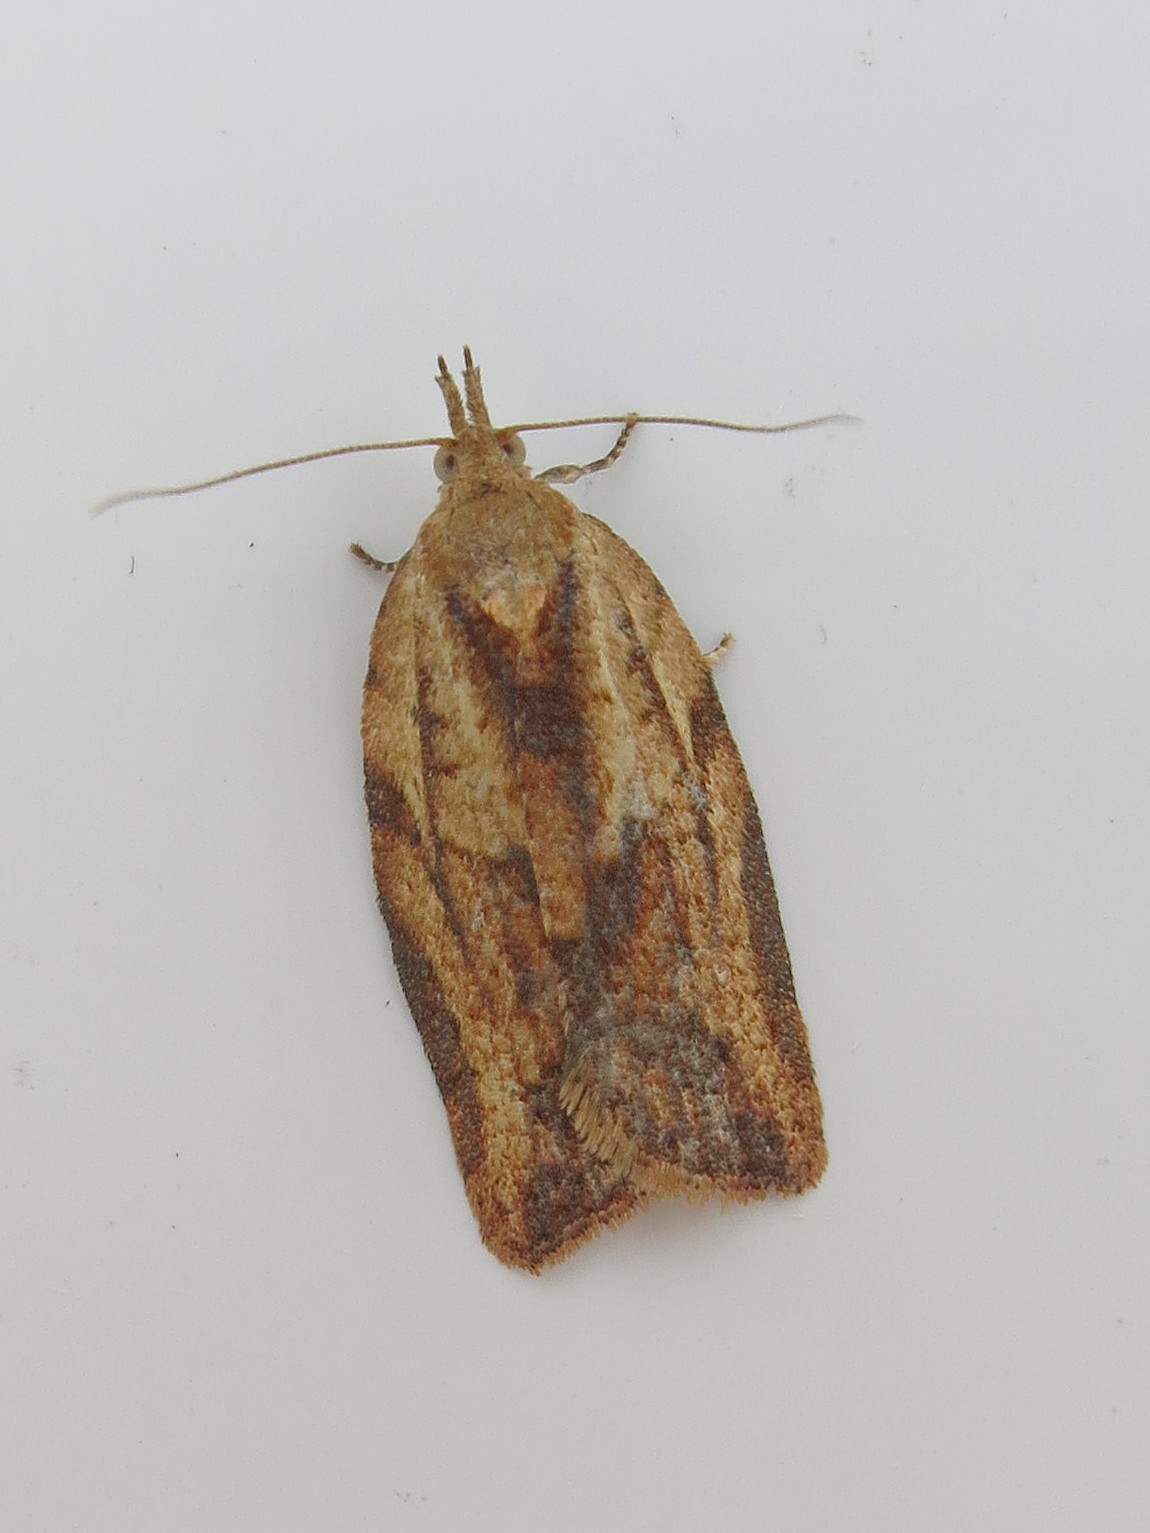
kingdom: Animalia
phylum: Arthropoda
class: Insecta
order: Lepidoptera
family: Tortricidae
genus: Epiphyas
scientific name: Epiphyas postvittana
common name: Light brown apple moth
